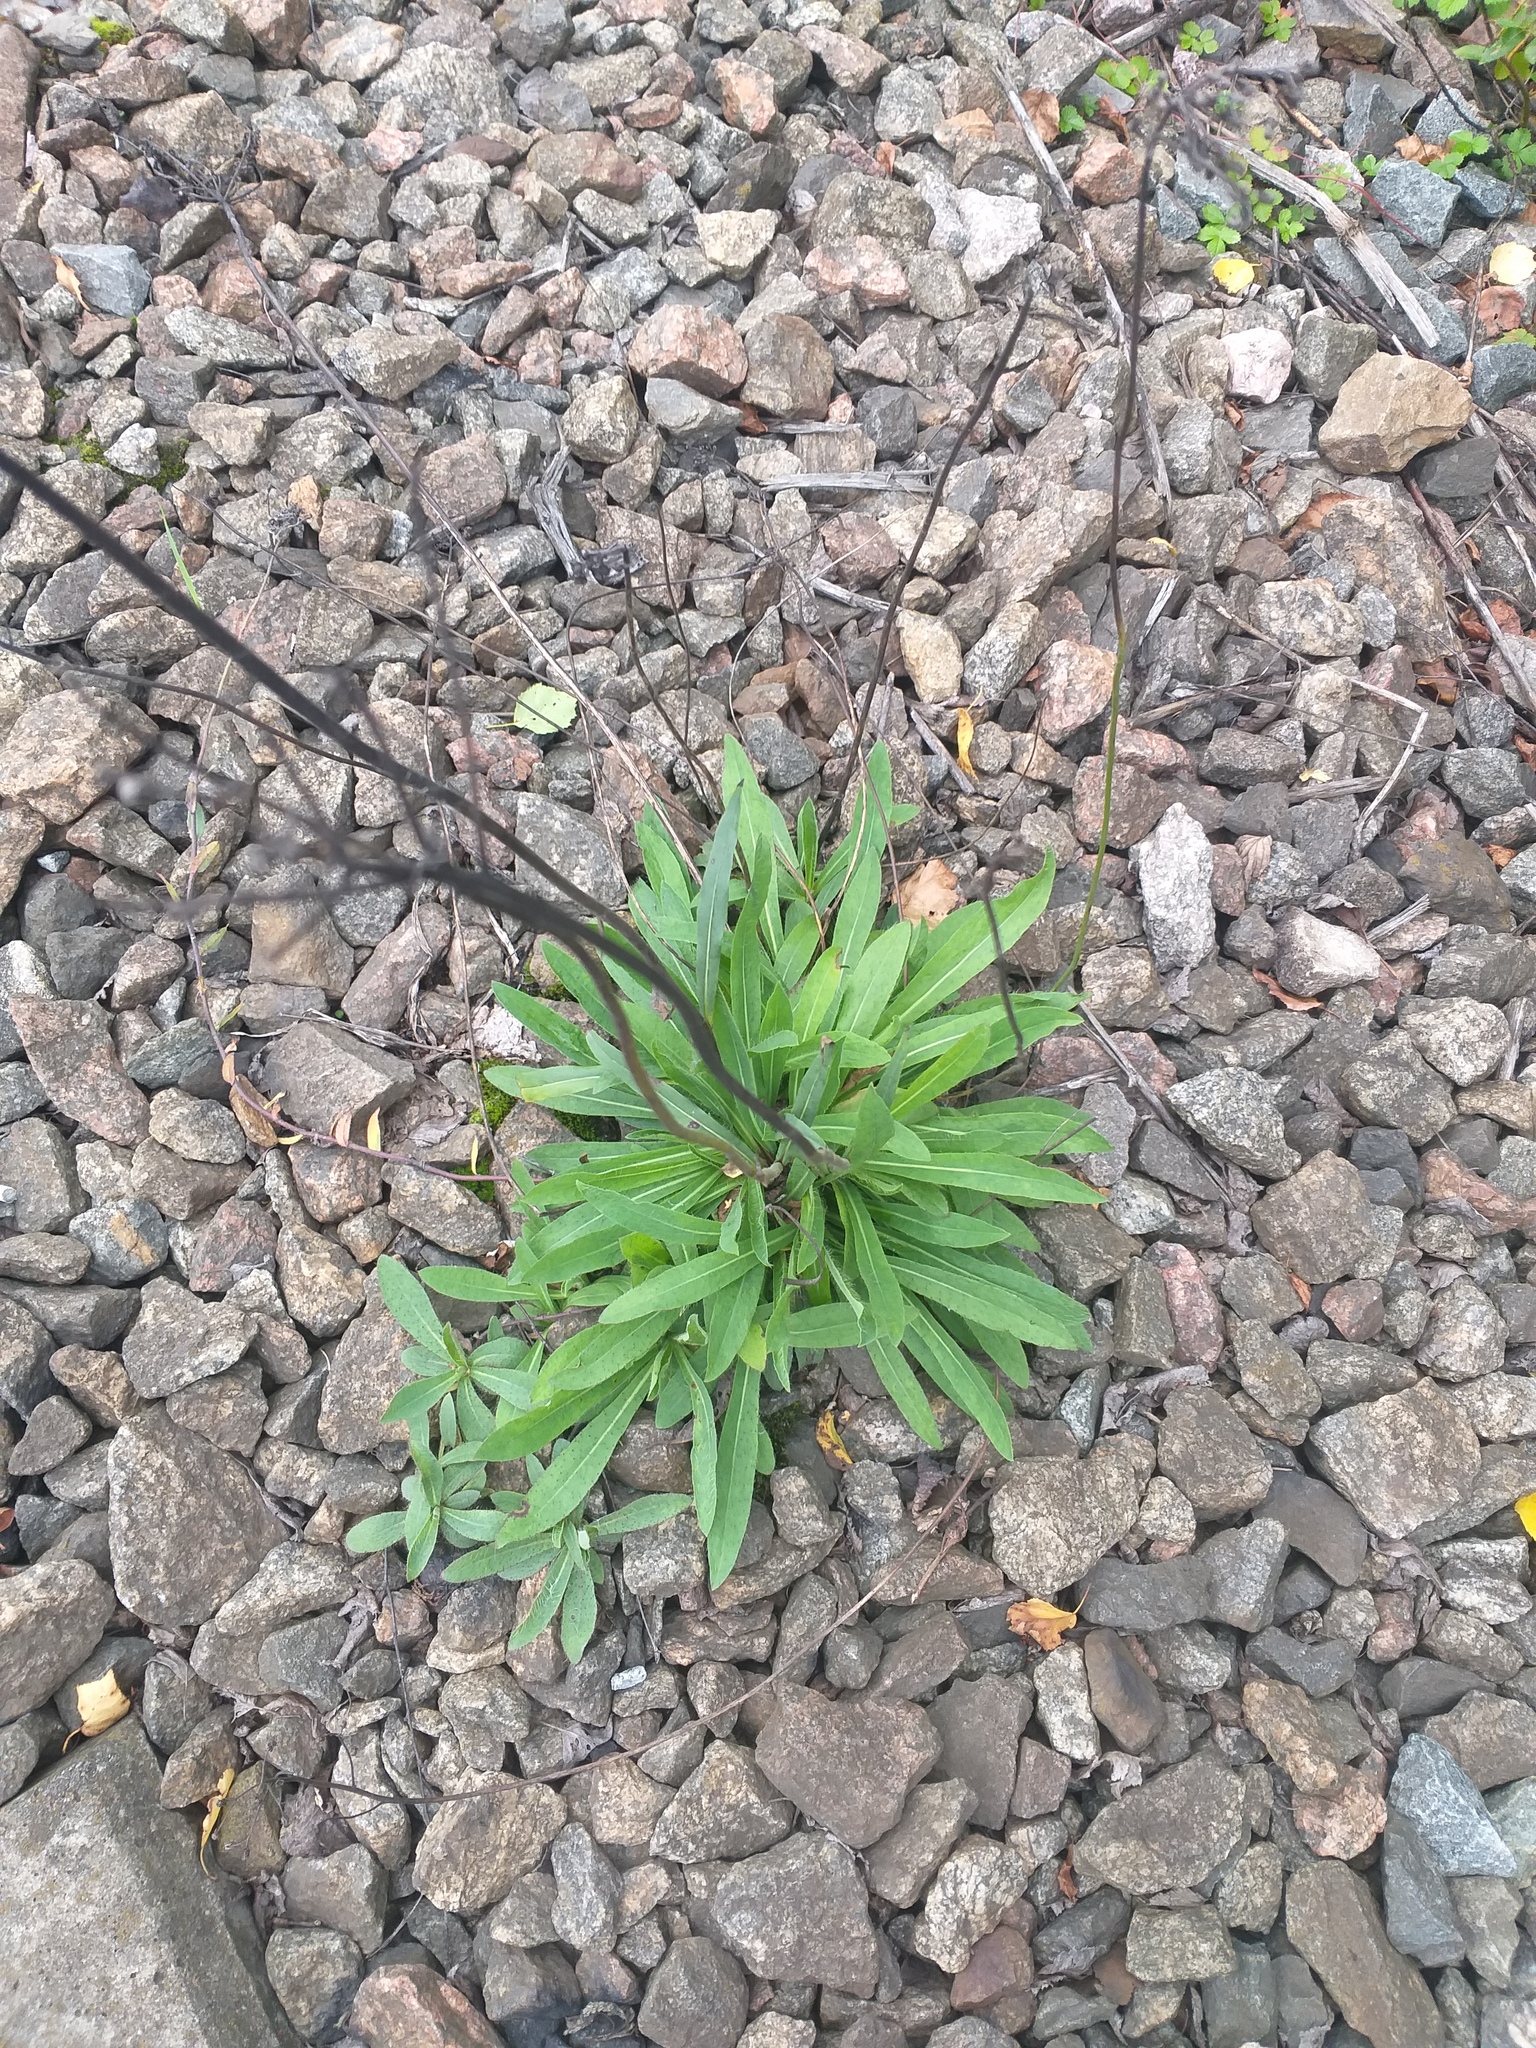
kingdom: Plantae
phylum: Tracheophyta
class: Magnoliopsida
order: Asterales
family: Asteraceae
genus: Pilosella
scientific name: Pilosella
